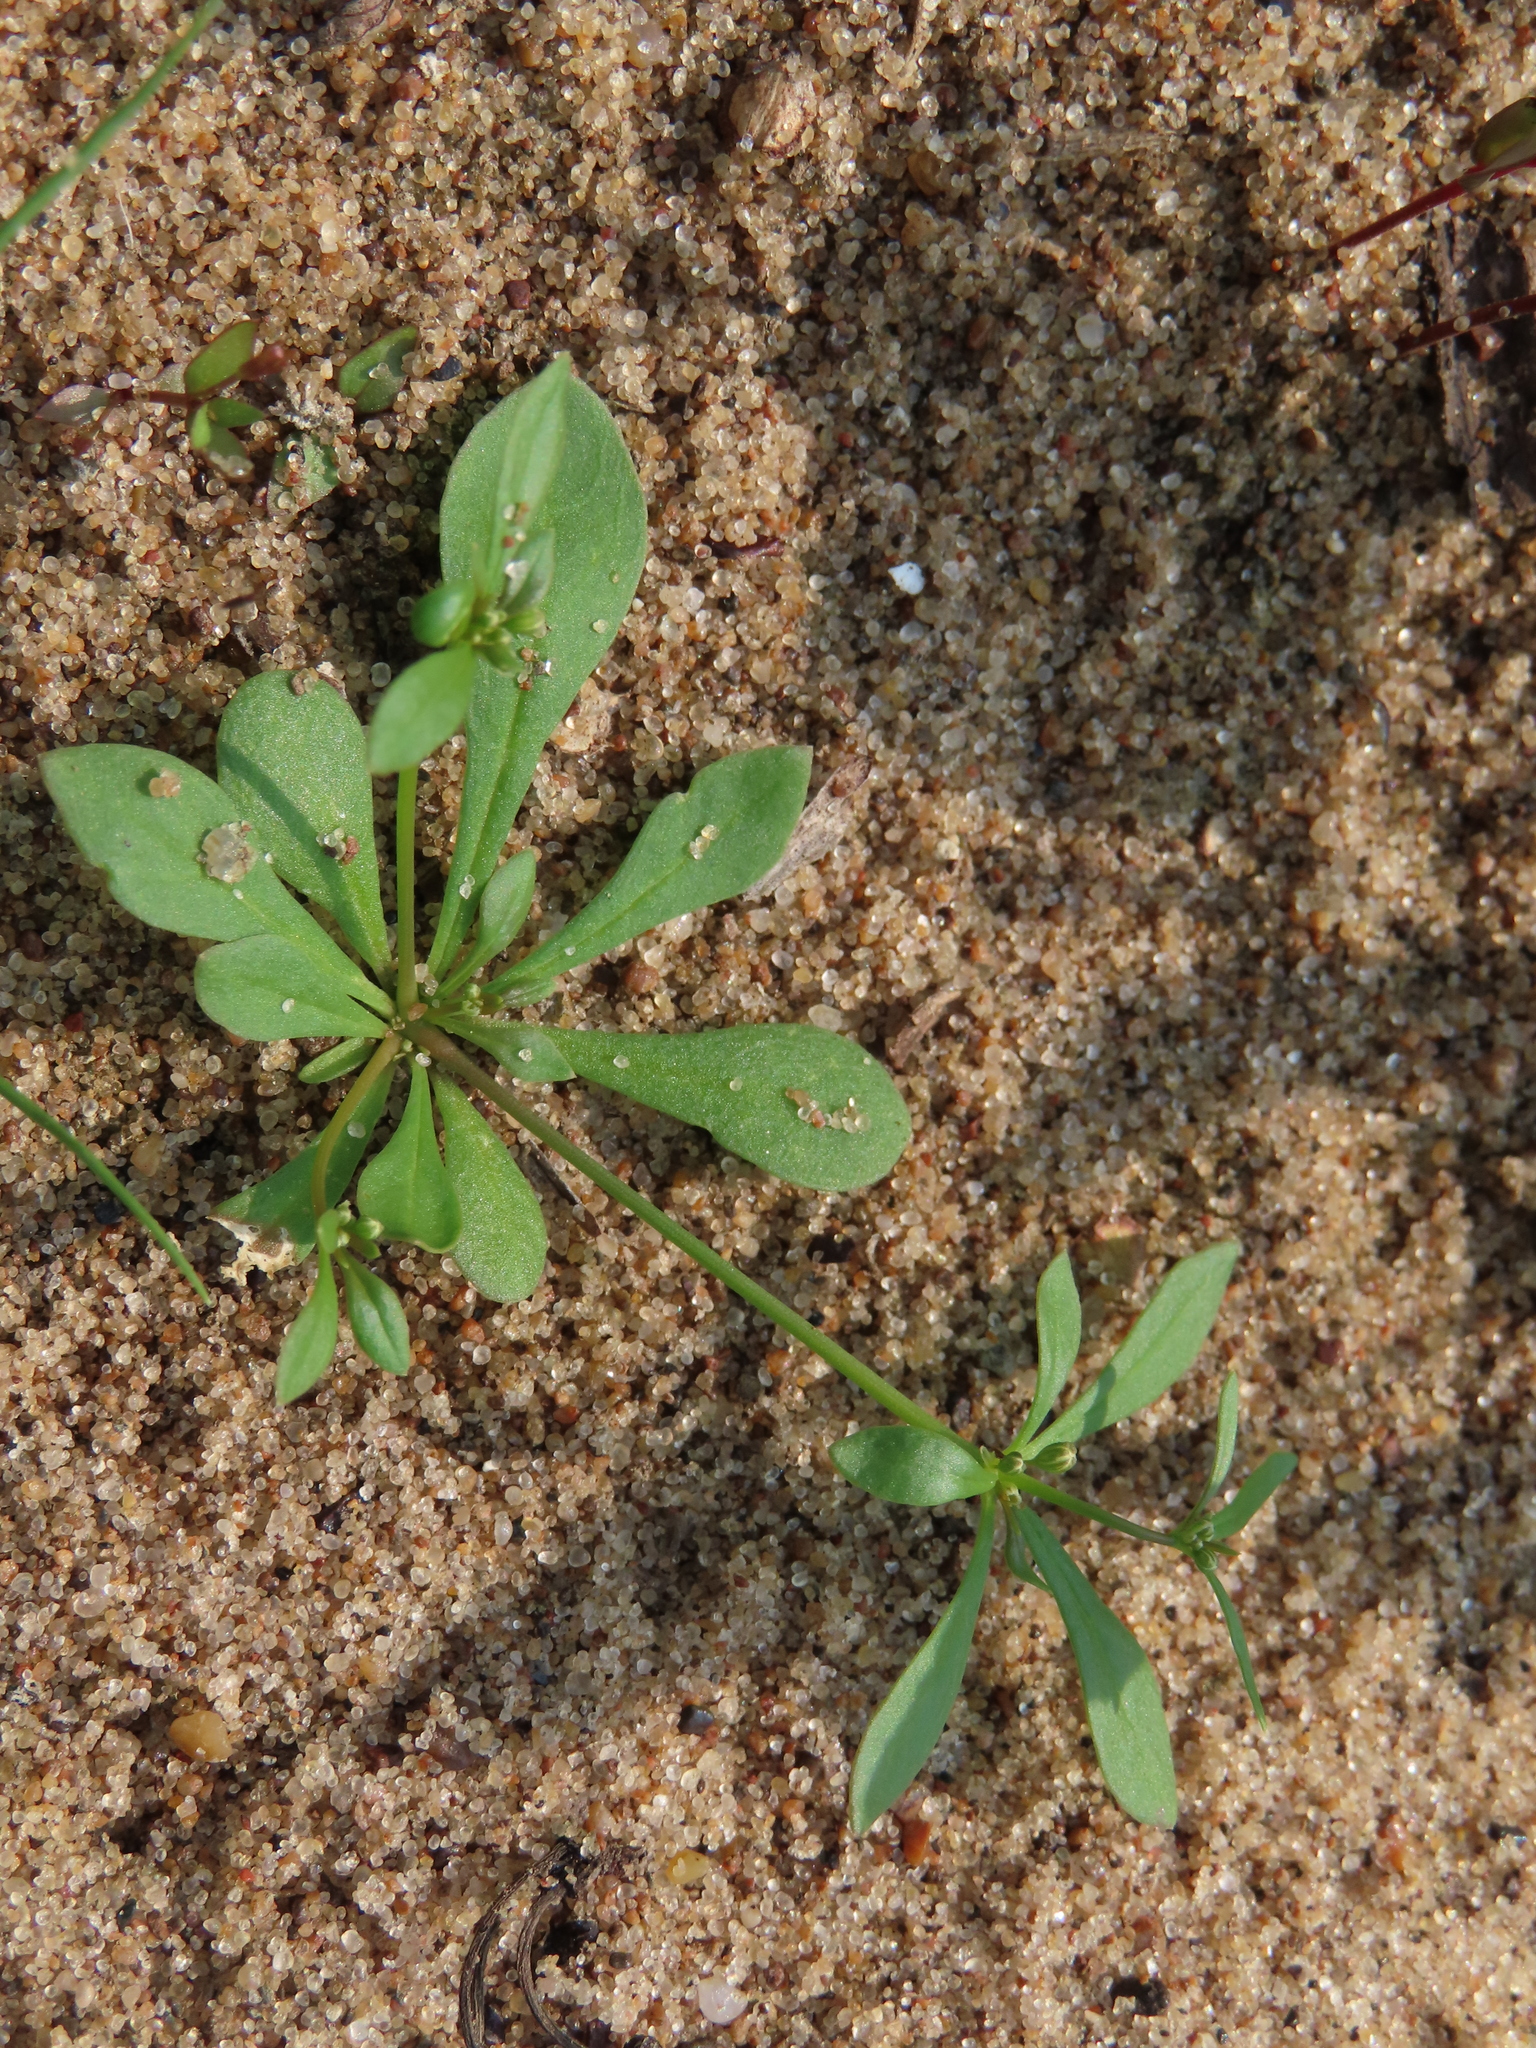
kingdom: Plantae
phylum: Tracheophyta
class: Magnoliopsida
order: Caryophyllales
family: Molluginaceae
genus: Mollugo
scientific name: Mollugo verticillata
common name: Green carpetweed
